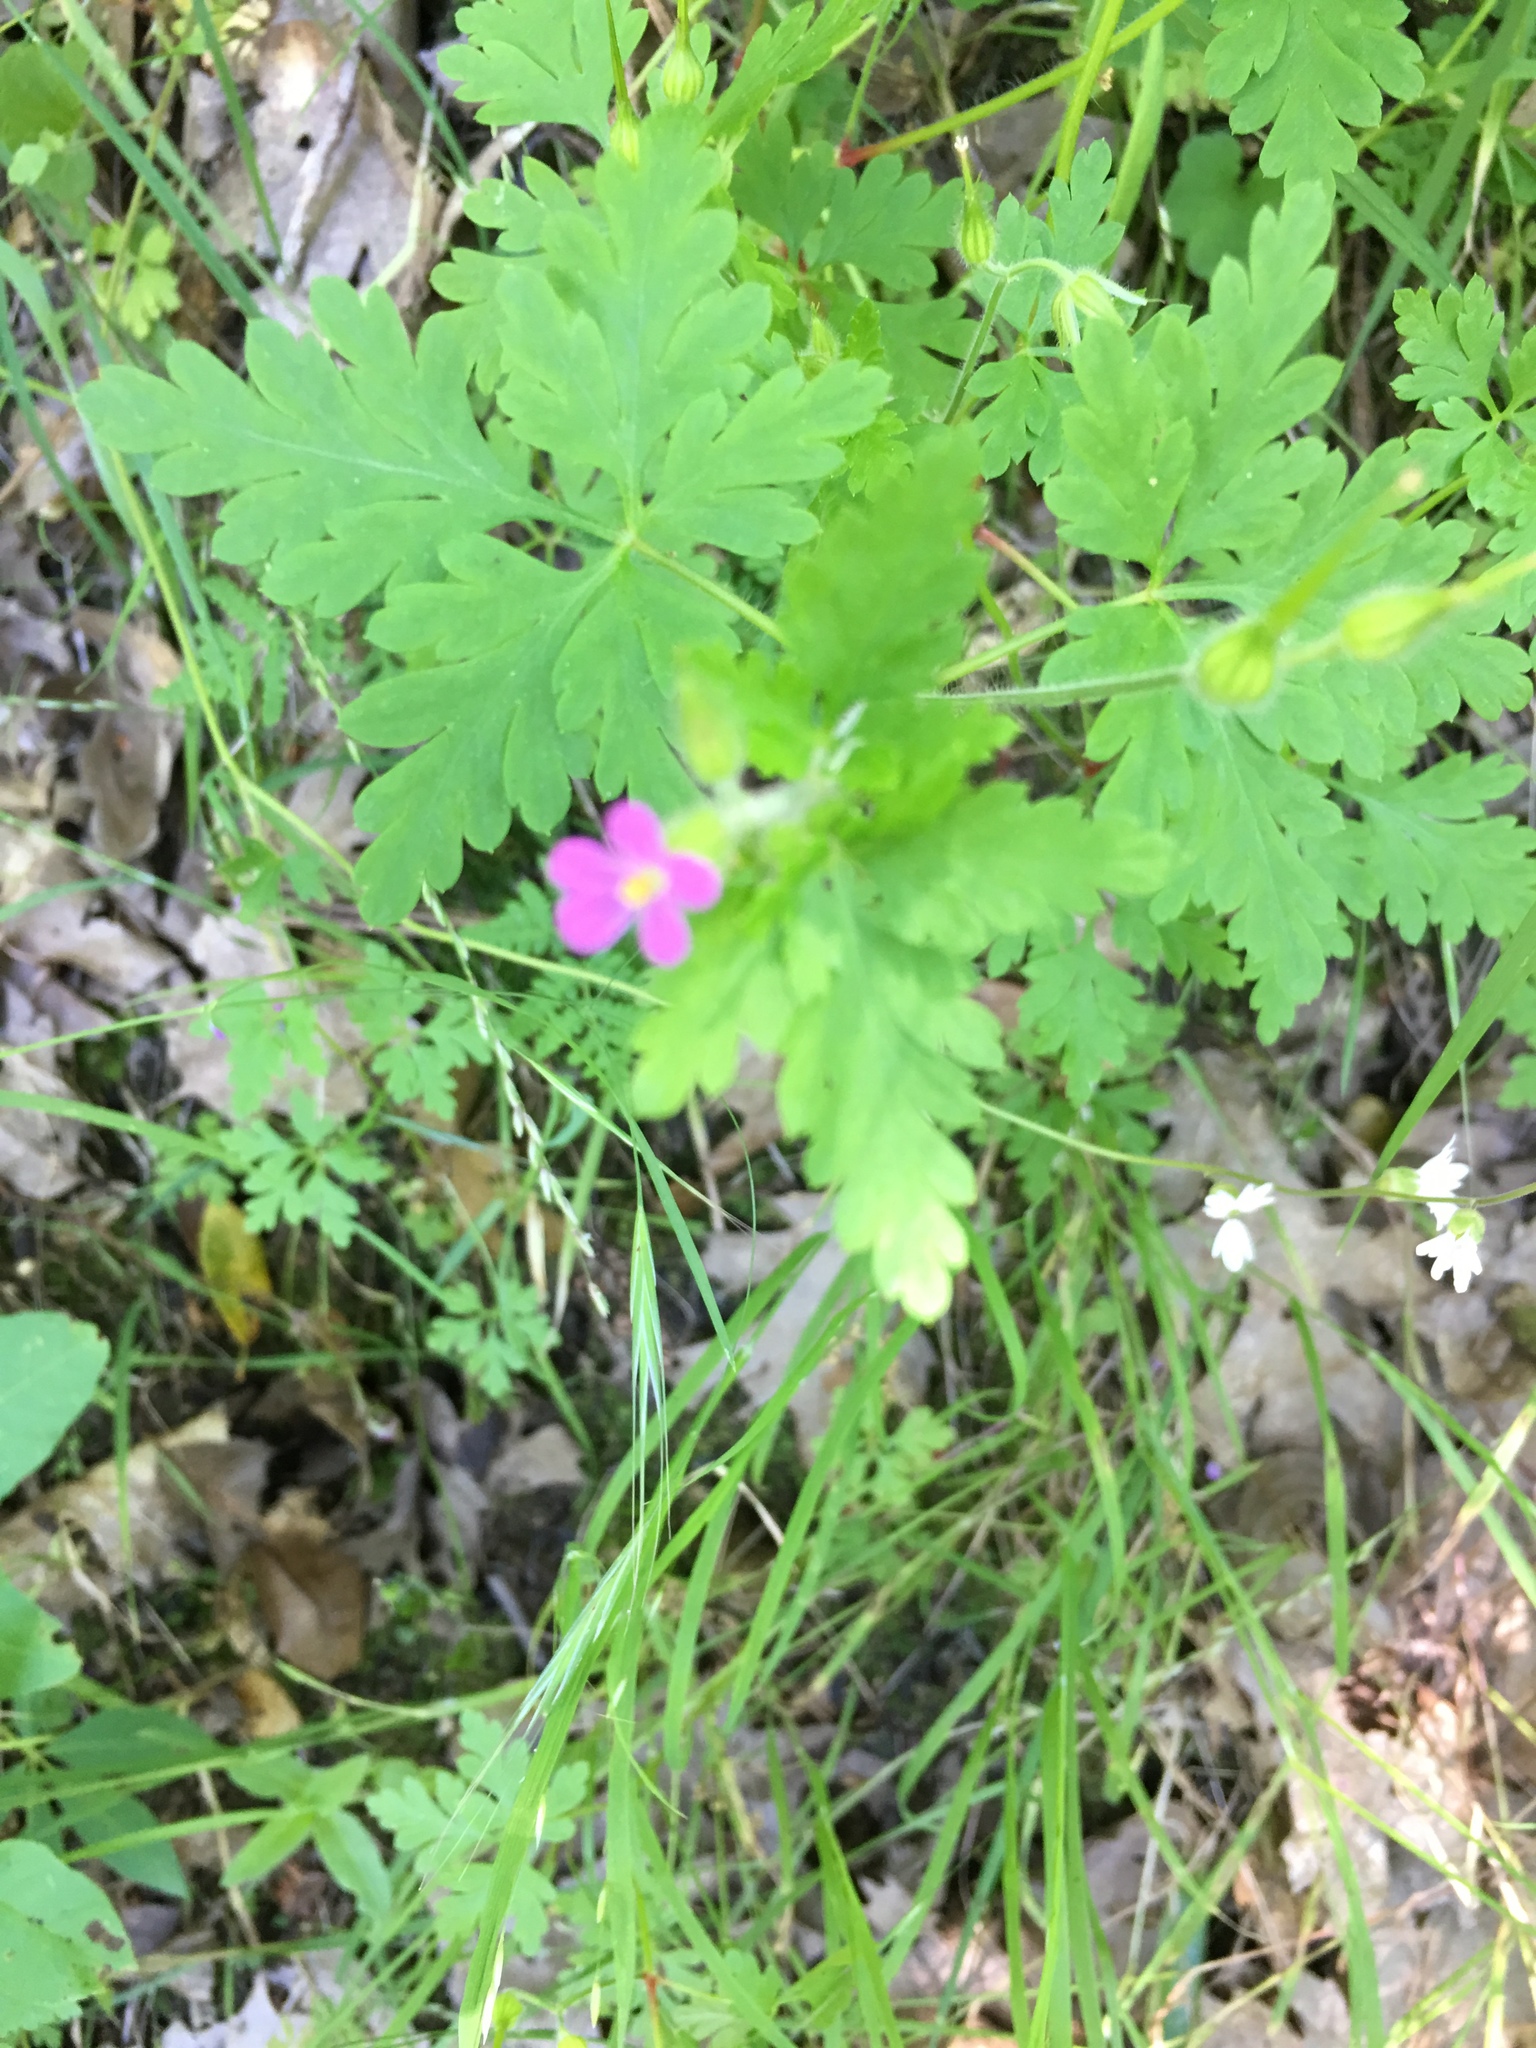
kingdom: Plantae
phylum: Tracheophyta
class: Magnoliopsida
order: Geraniales
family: Geraniaceae
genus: Geranium
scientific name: Geranium purpureum
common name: Little-robin
